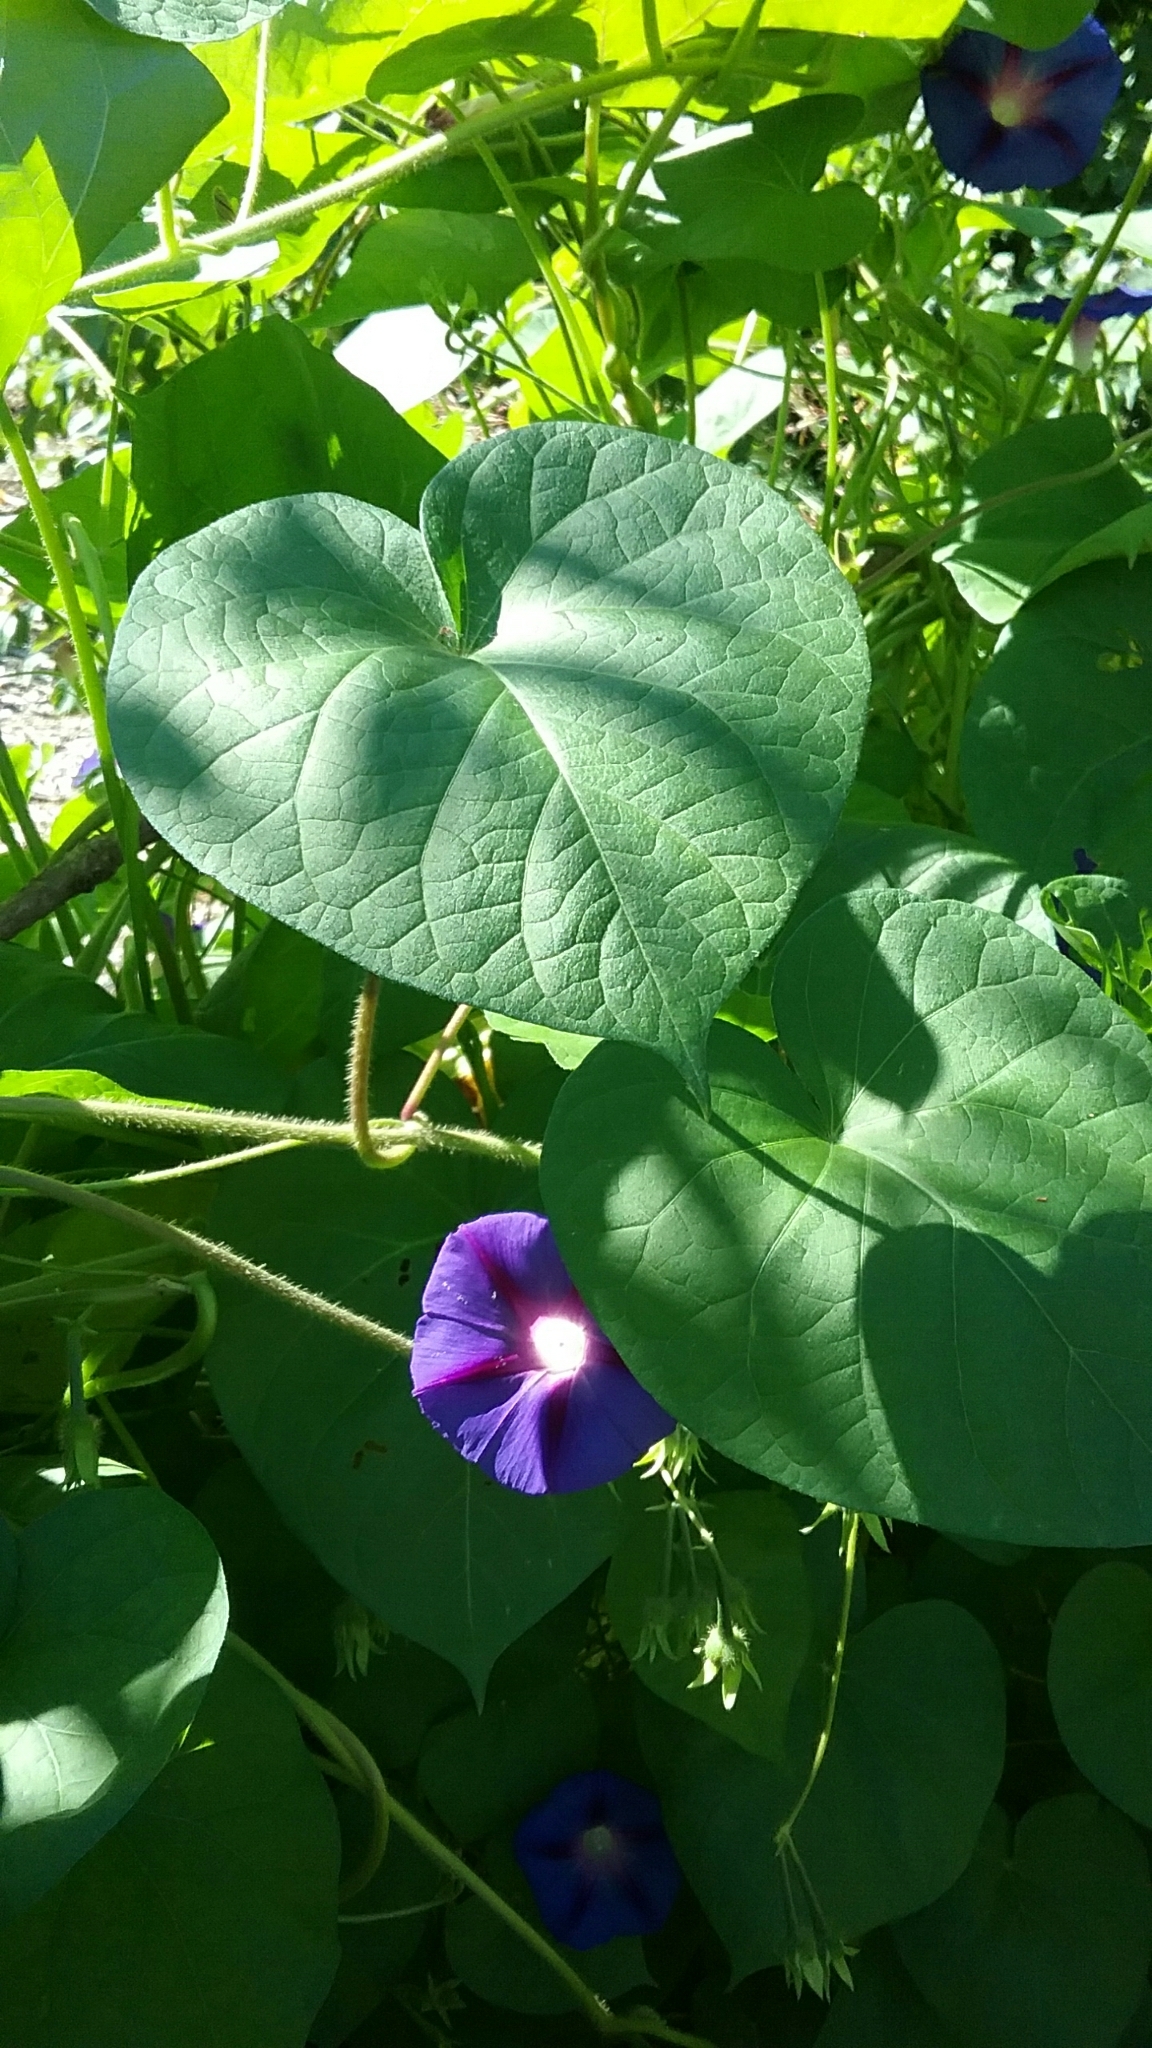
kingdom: Plantae
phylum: Tracheophyta
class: Magnoliopsida
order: Solanales
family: Convolvulaceae
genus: Ipomoea
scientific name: Ipomoea purpurea
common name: Common morning-glory
